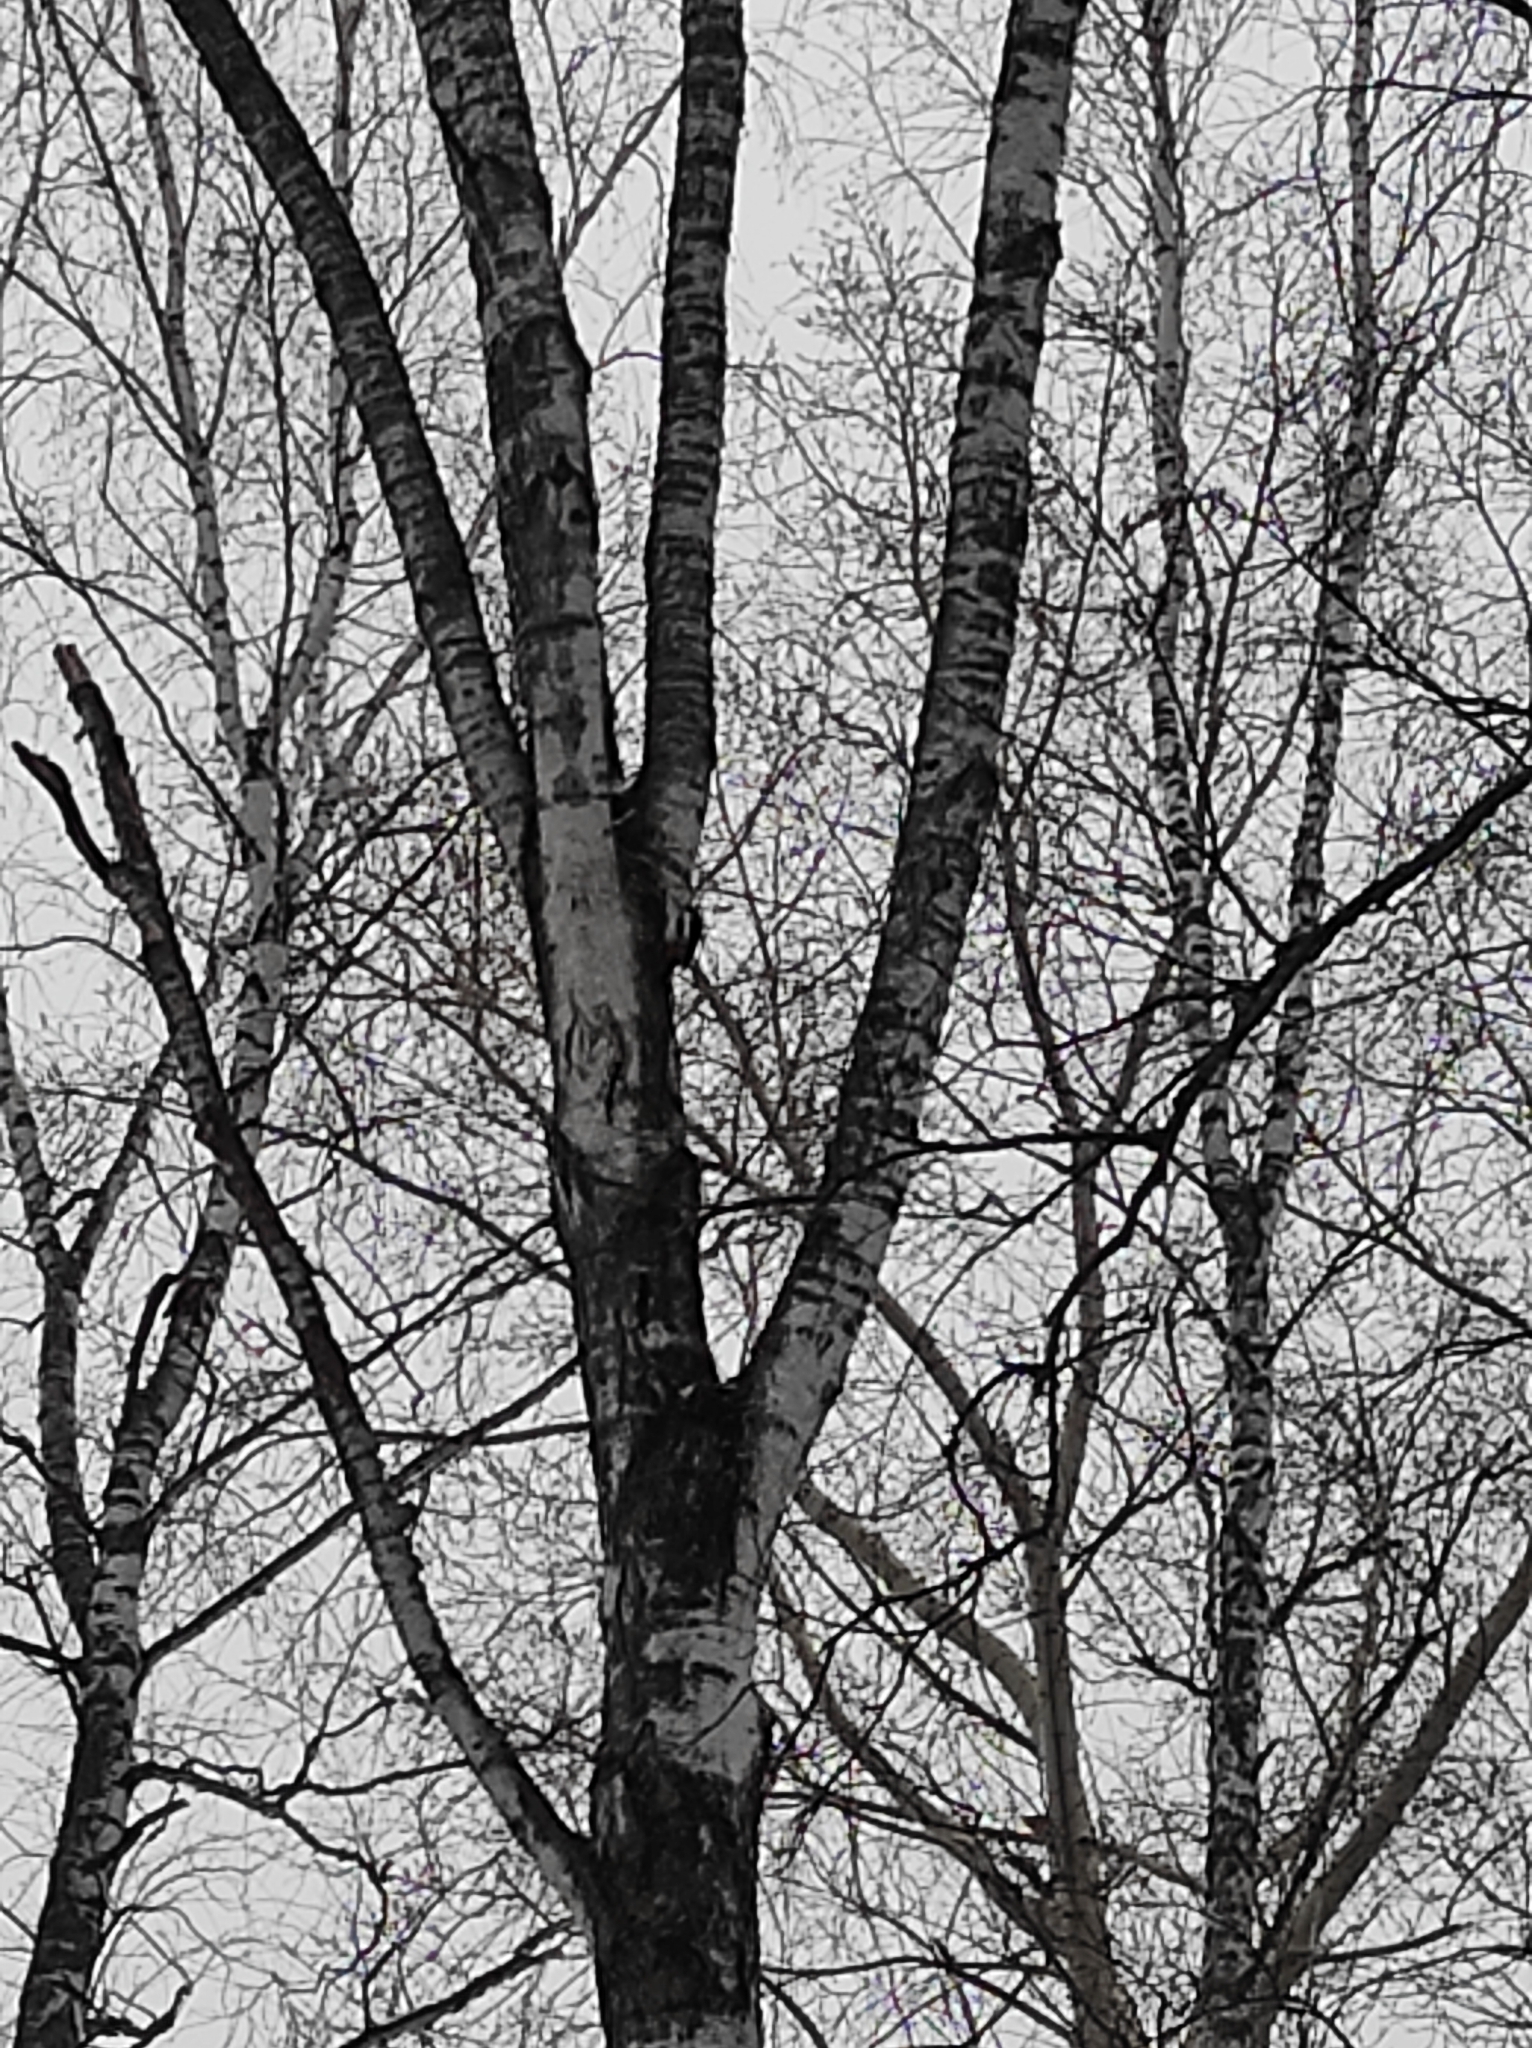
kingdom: Animalia
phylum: Chordata
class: Aves
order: Piciformes
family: Picidae
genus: Dendrocopos
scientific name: Dendrocopos major
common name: Great spotted woodpecker
